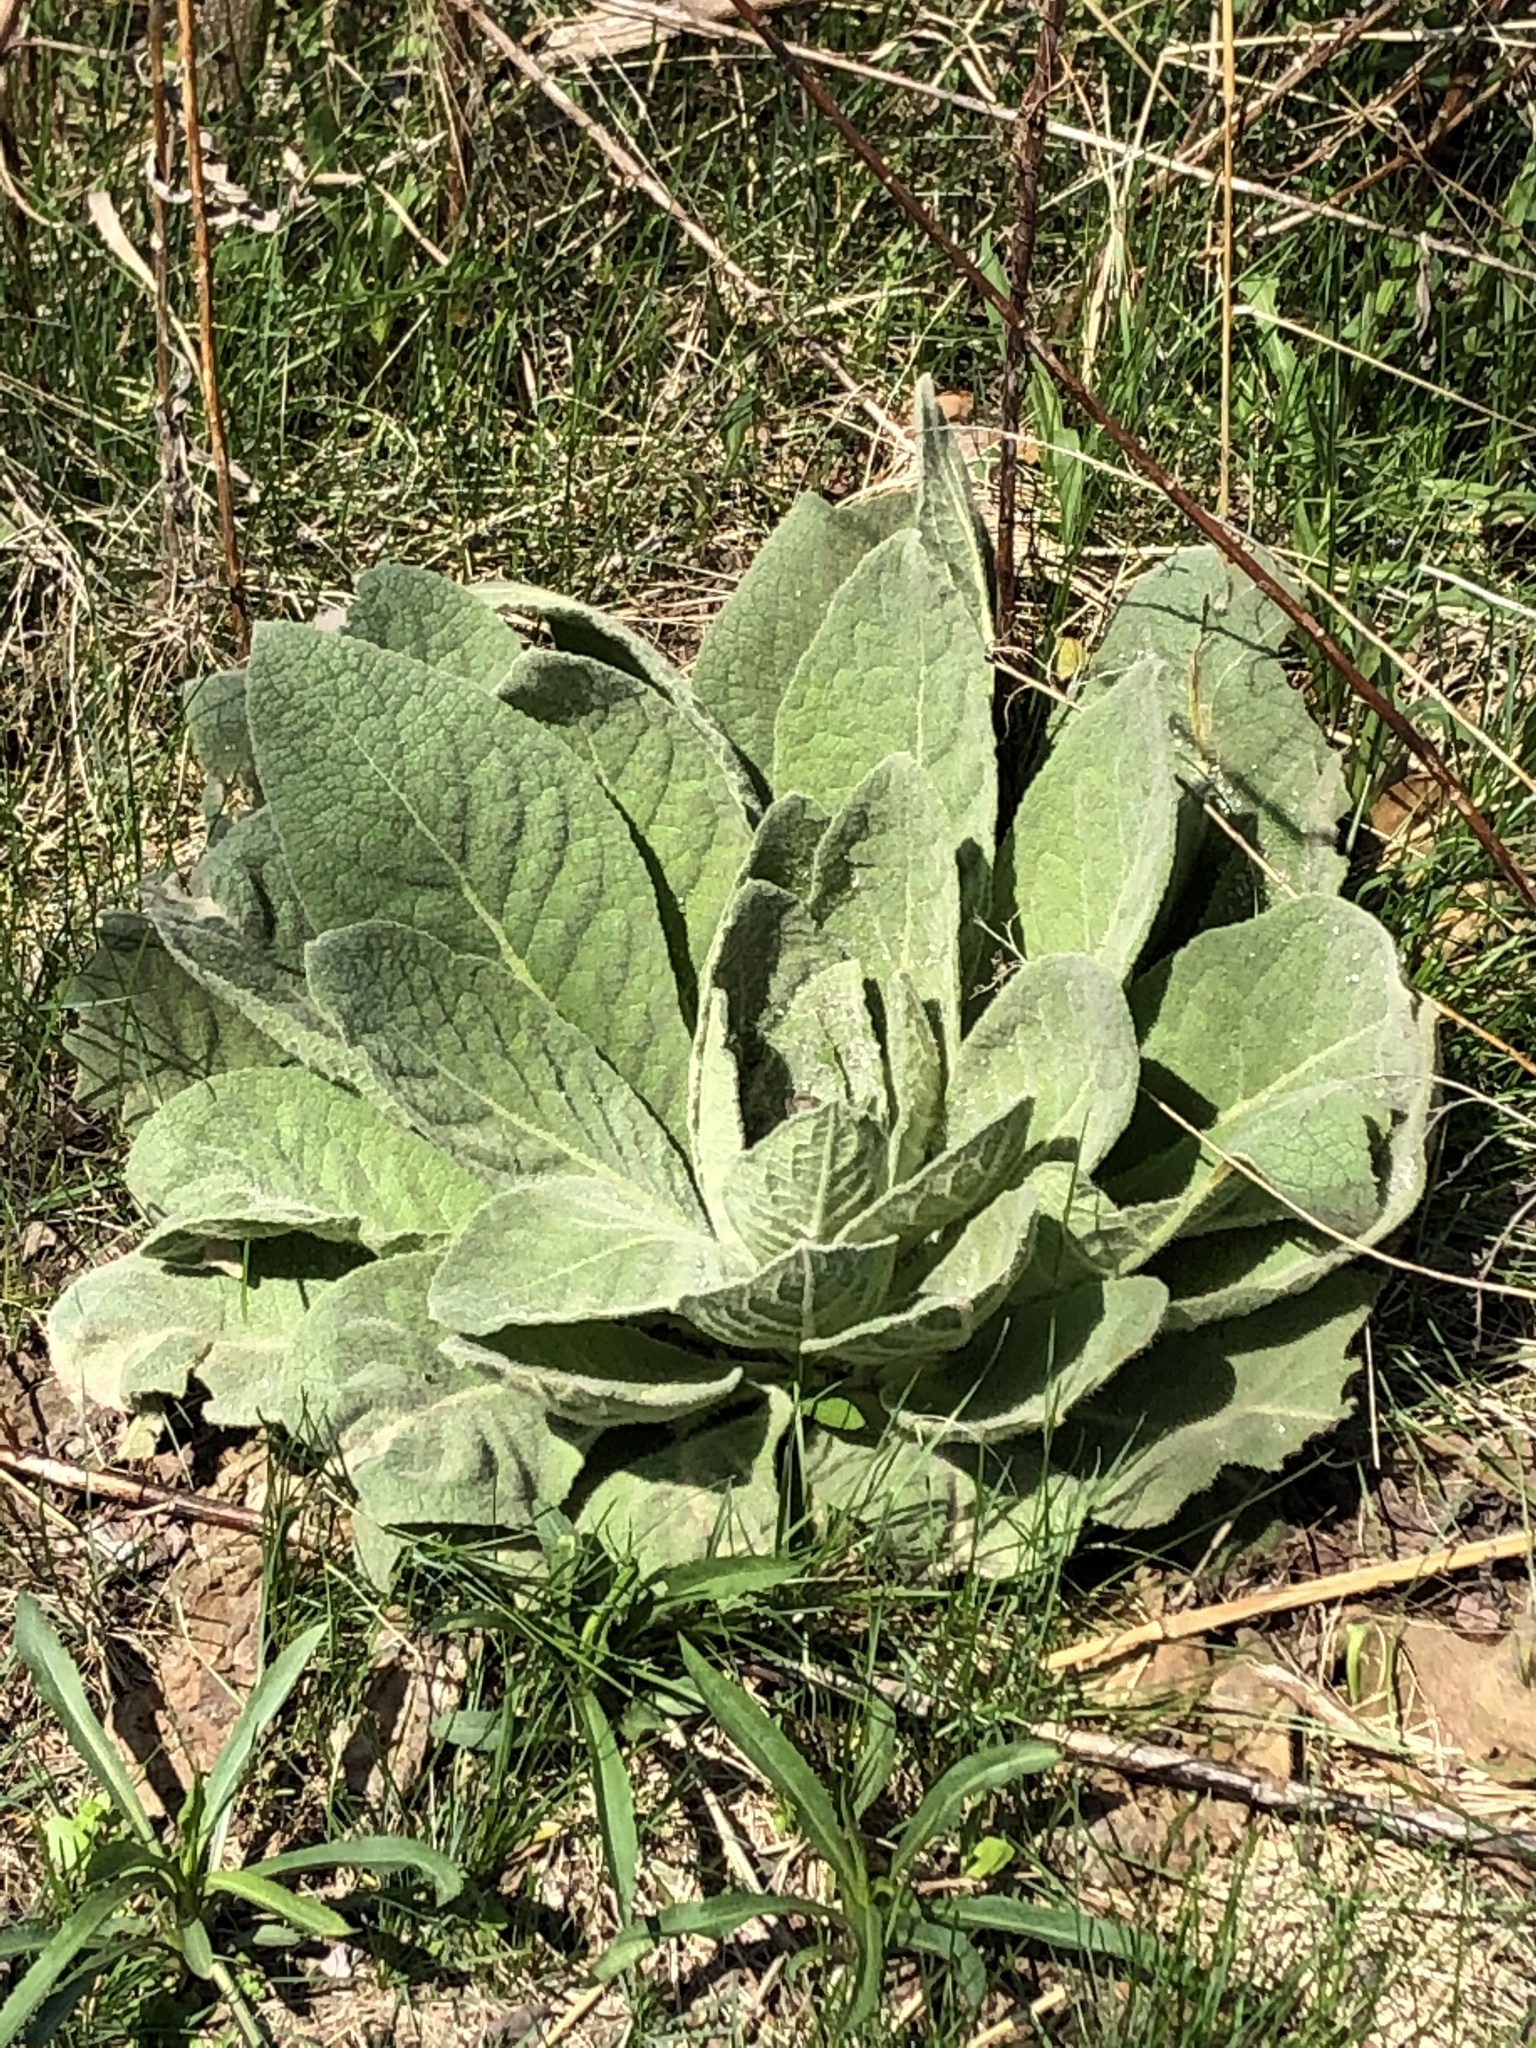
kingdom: Plantae
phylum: Tracheophyta
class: Magnoliopsida
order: Lamiales
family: Scrophulariaceae
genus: Verbascum
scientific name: Verbascum thapsus
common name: Common mullein
